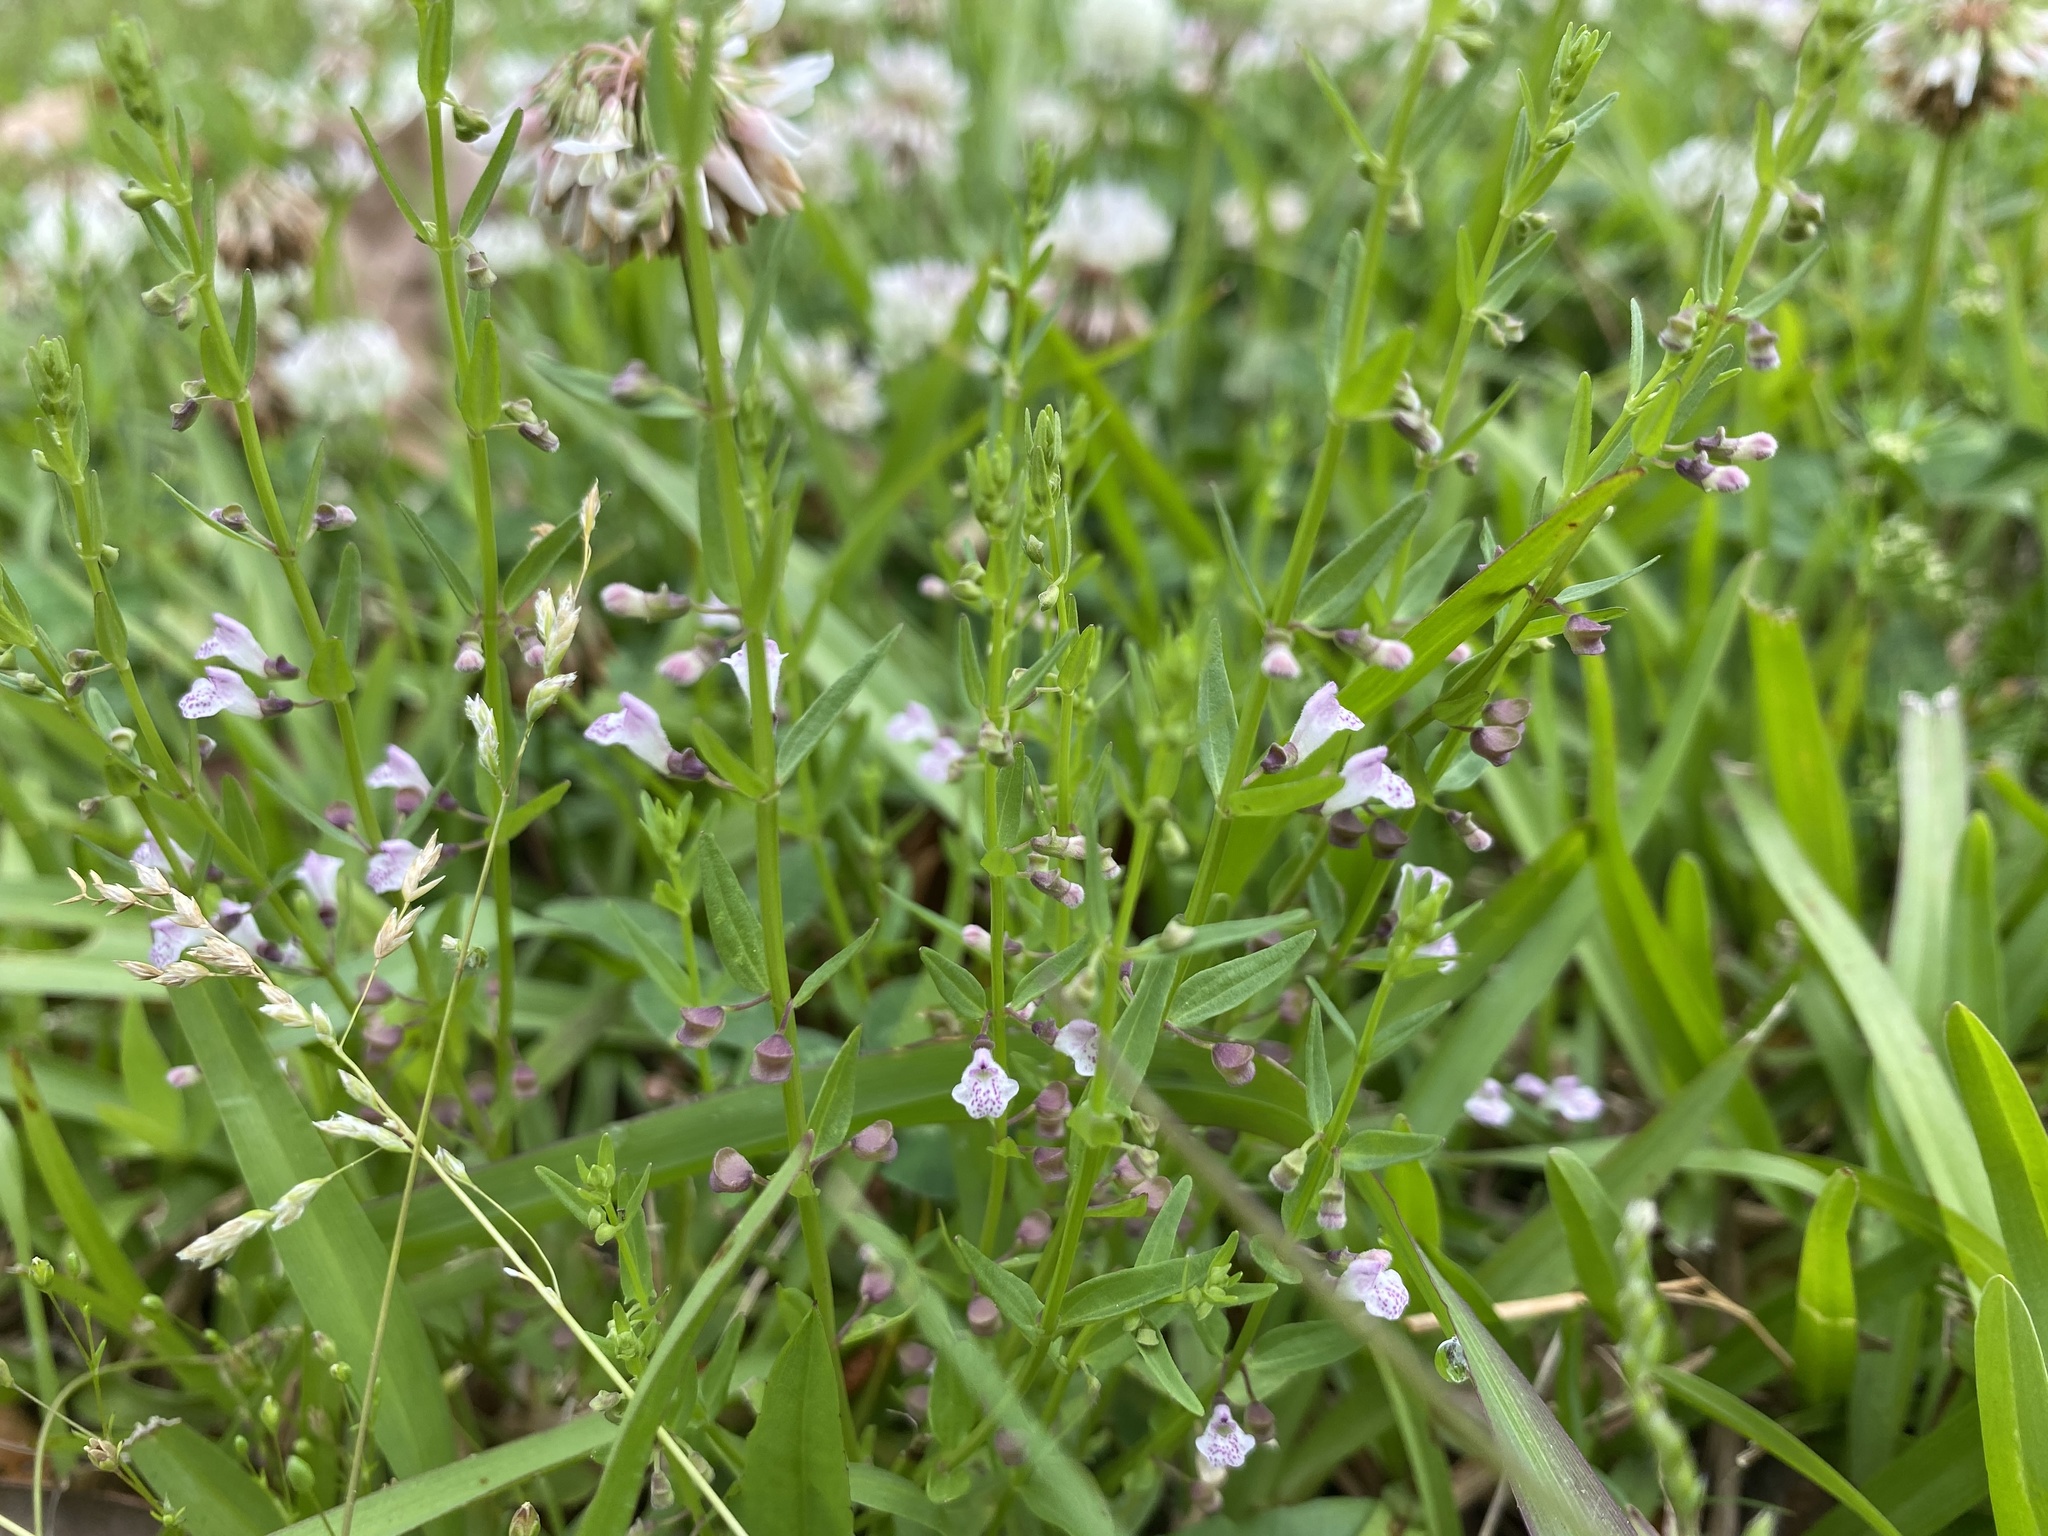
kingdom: Plantae
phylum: Tracheophyta
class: Magnoliopsida
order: Lamiales
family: Lamiaceae
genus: Scutellaria
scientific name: Scutellaria racemosa
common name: South american skullcap
